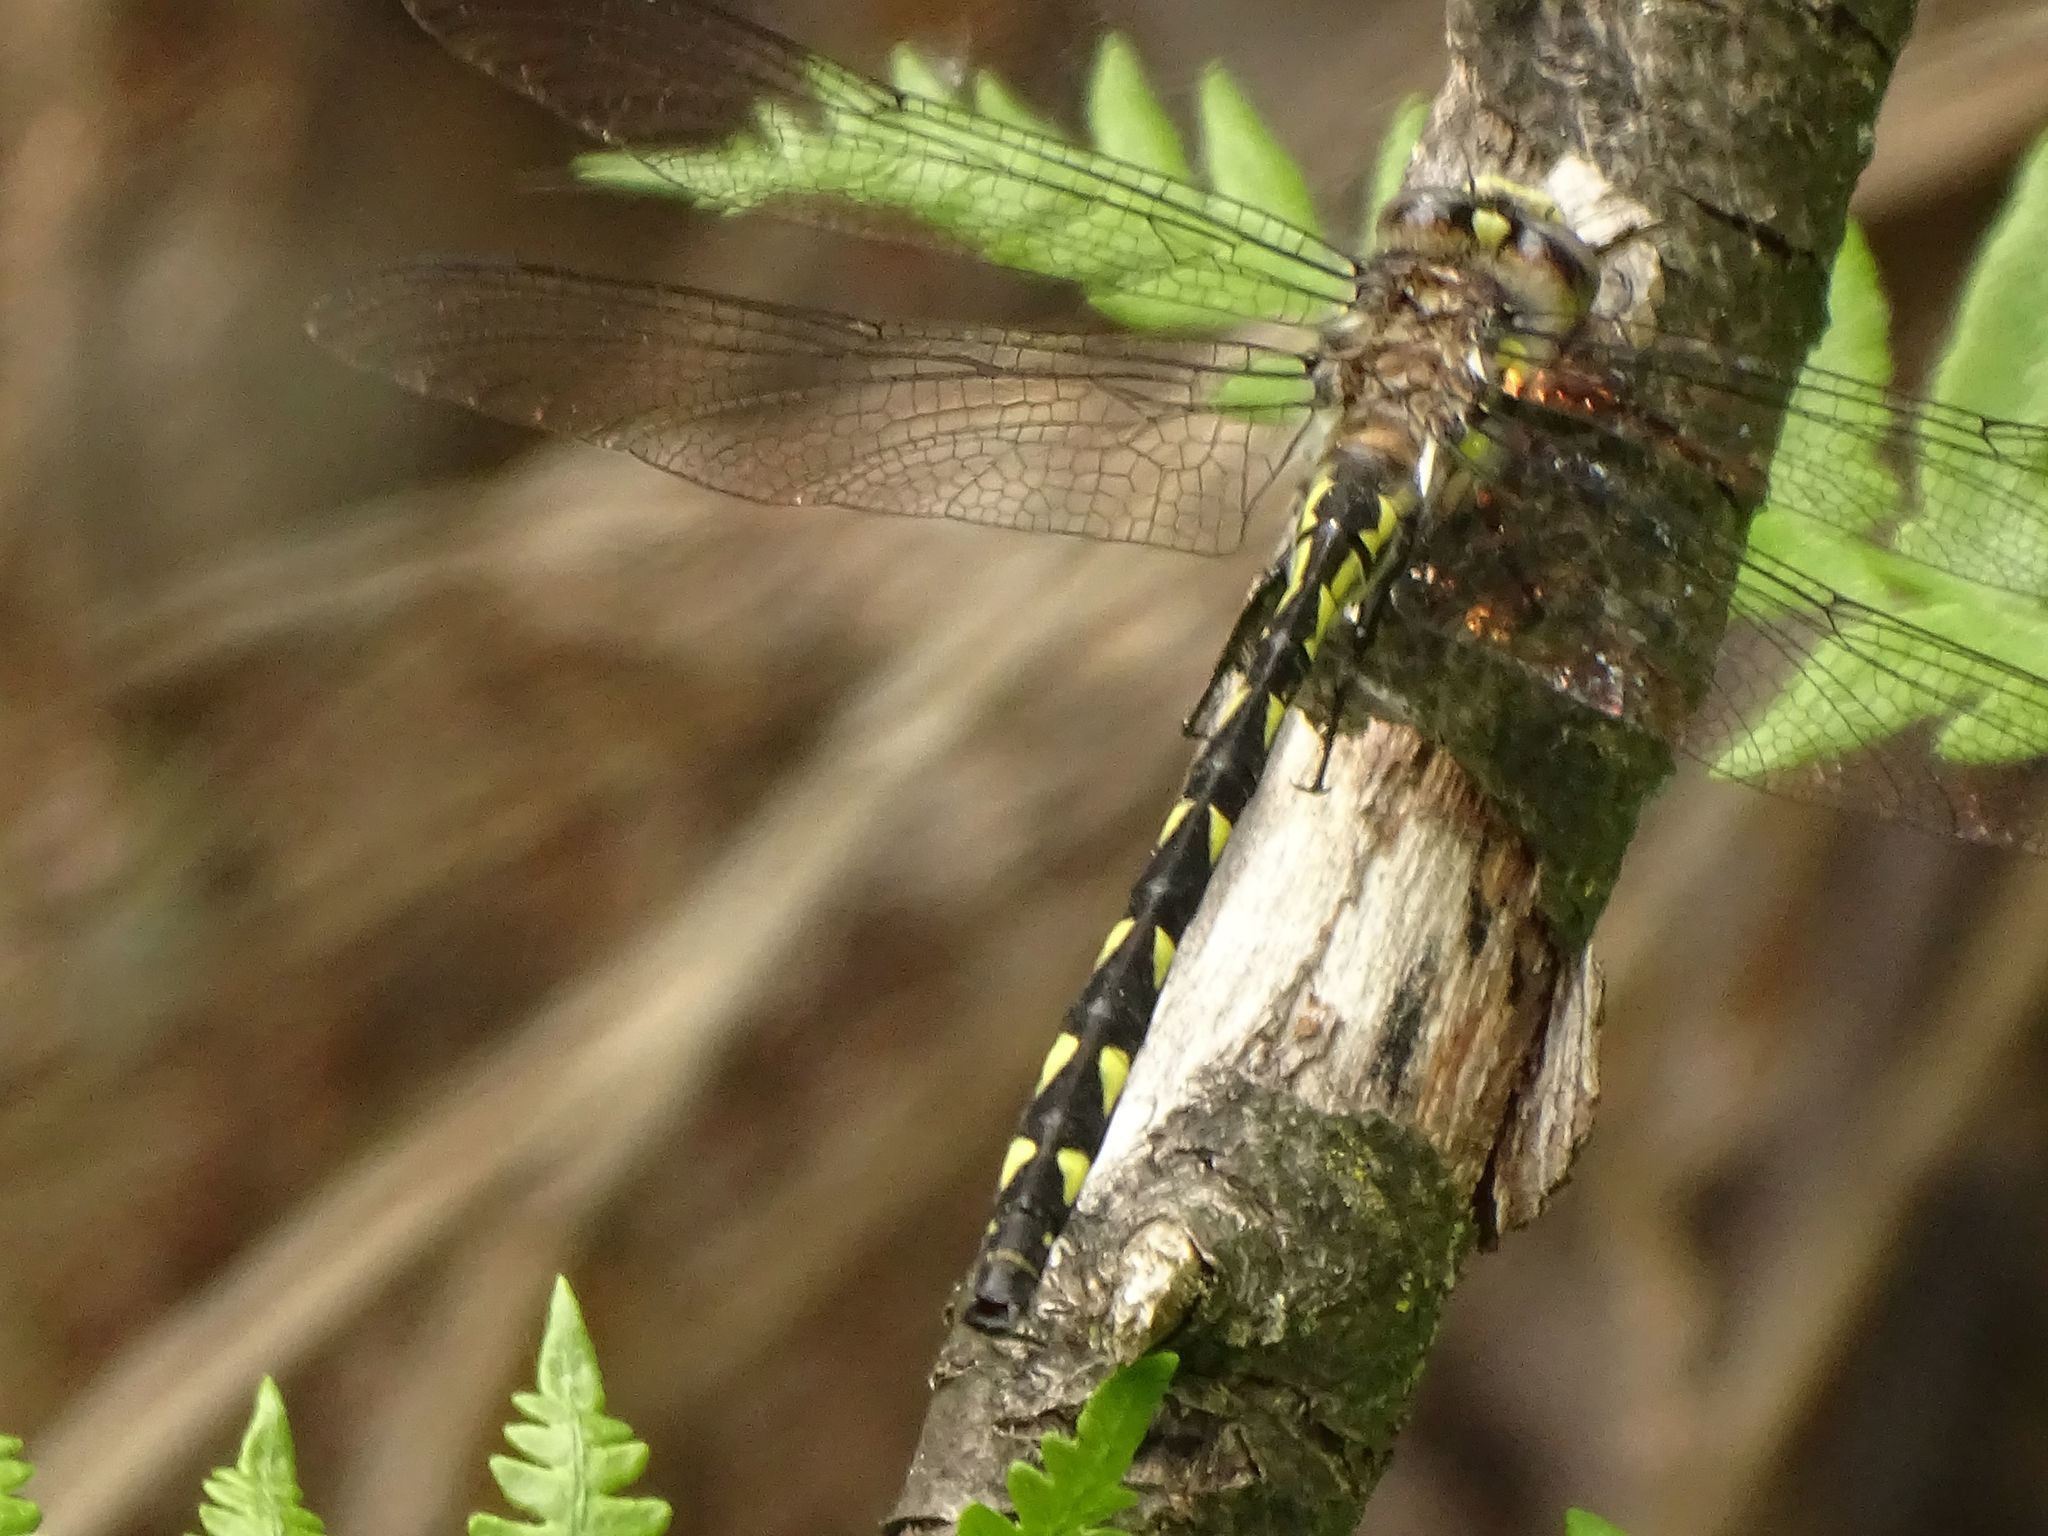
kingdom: Animalia
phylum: Arthropoda
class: Insecta
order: Odonata
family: Cordulegastridae
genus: Cordulegaster
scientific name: Cordulegaster diastatops
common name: Delta-spotted spiketail
